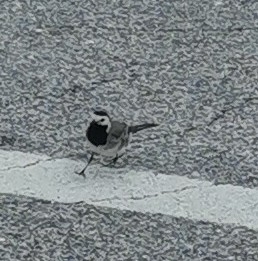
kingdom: Animalia
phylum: Chordata
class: Aves
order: Passeriformes
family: Motacillidae
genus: Motacilla
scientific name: Motacilla alba
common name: White wagtail
